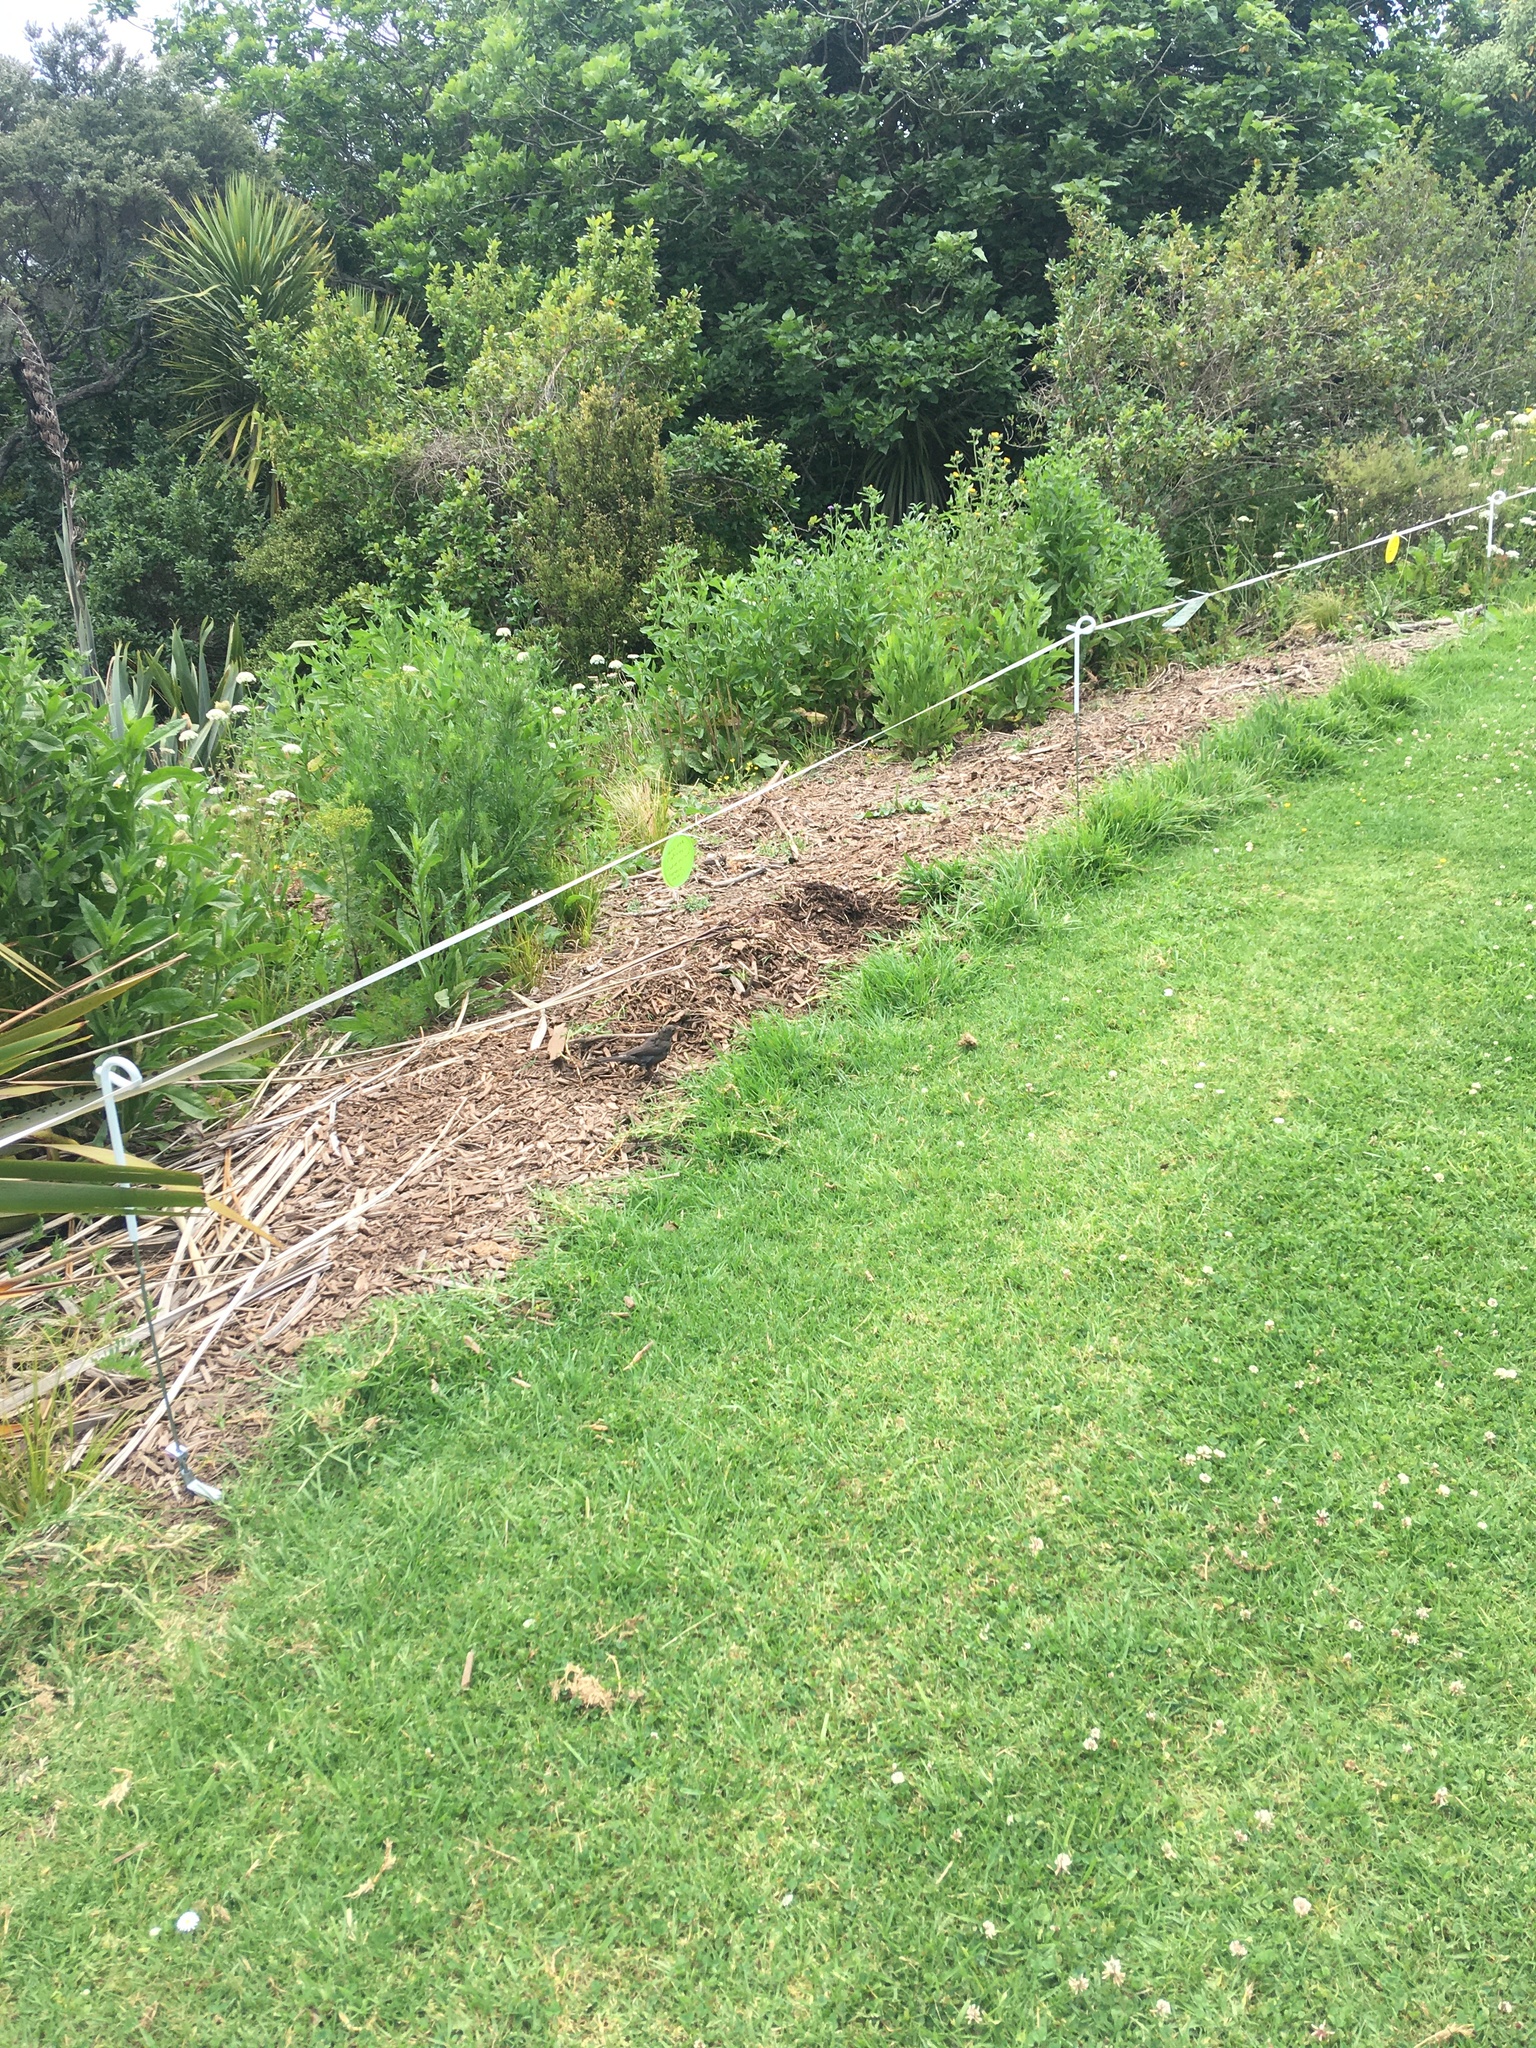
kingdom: Animalia
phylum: Chordata
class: Aves
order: Passeriformes
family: Turdidae
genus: Turdus
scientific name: Turdus merula
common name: Common blackbird
